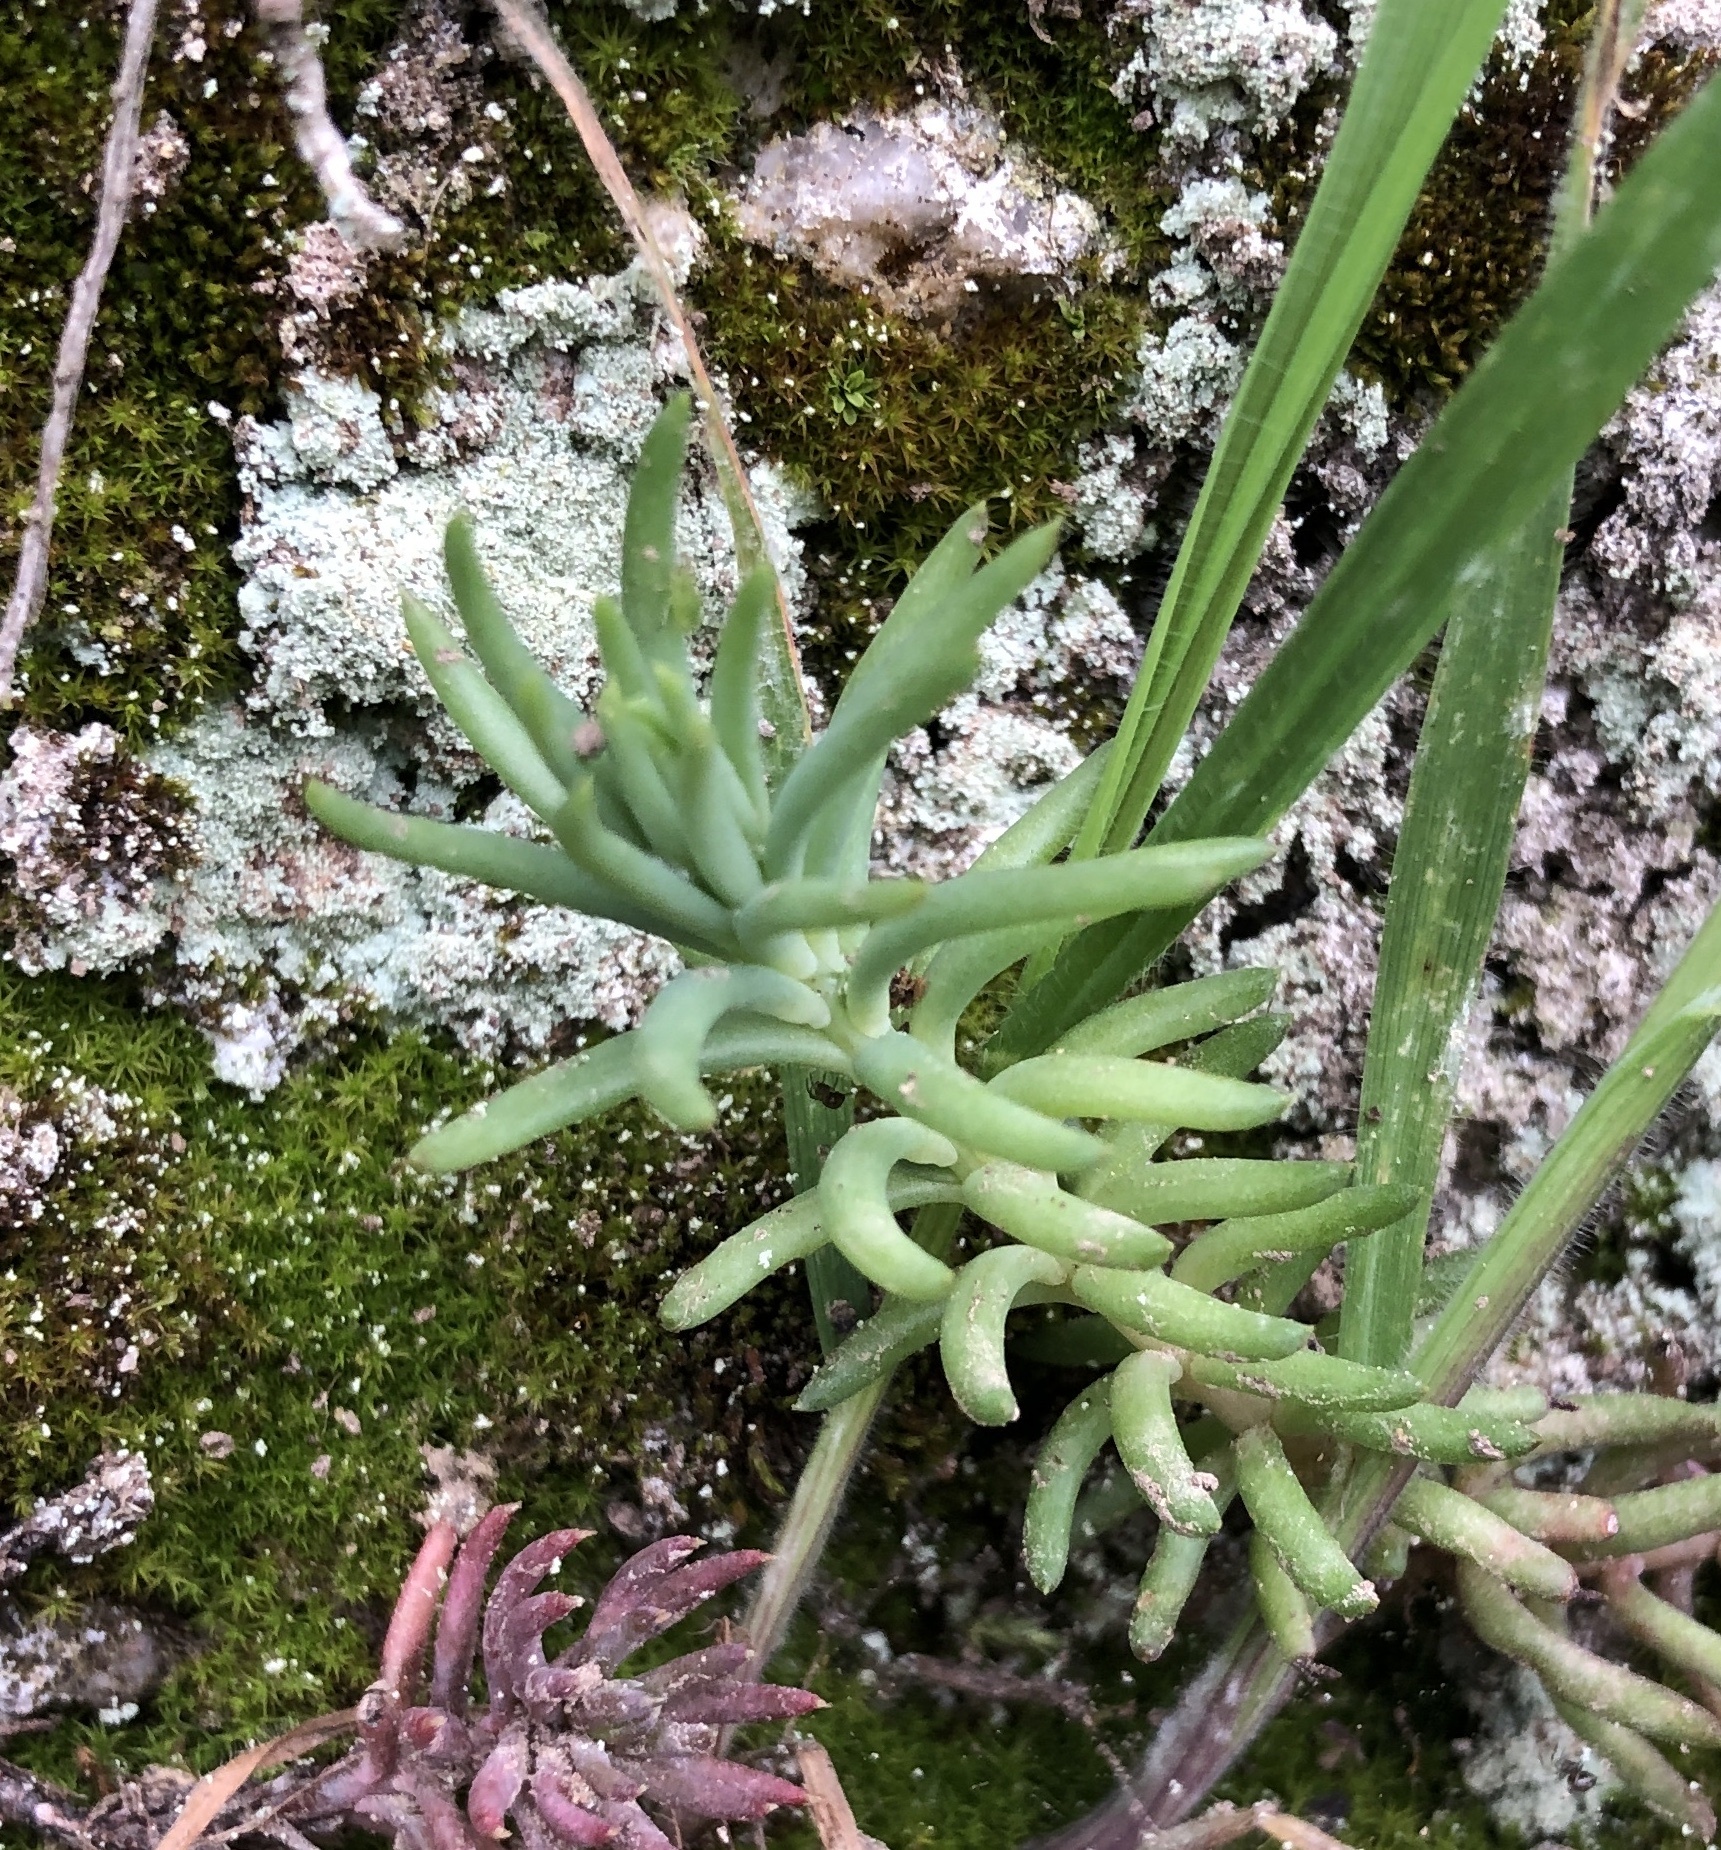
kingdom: Plantae
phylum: Tracheophyta
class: Magnoliopsida
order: Saxifragales
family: Crassulaceae
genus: Petrosedum
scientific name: Petrosedum rupestre
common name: Jenny's stonecrop
